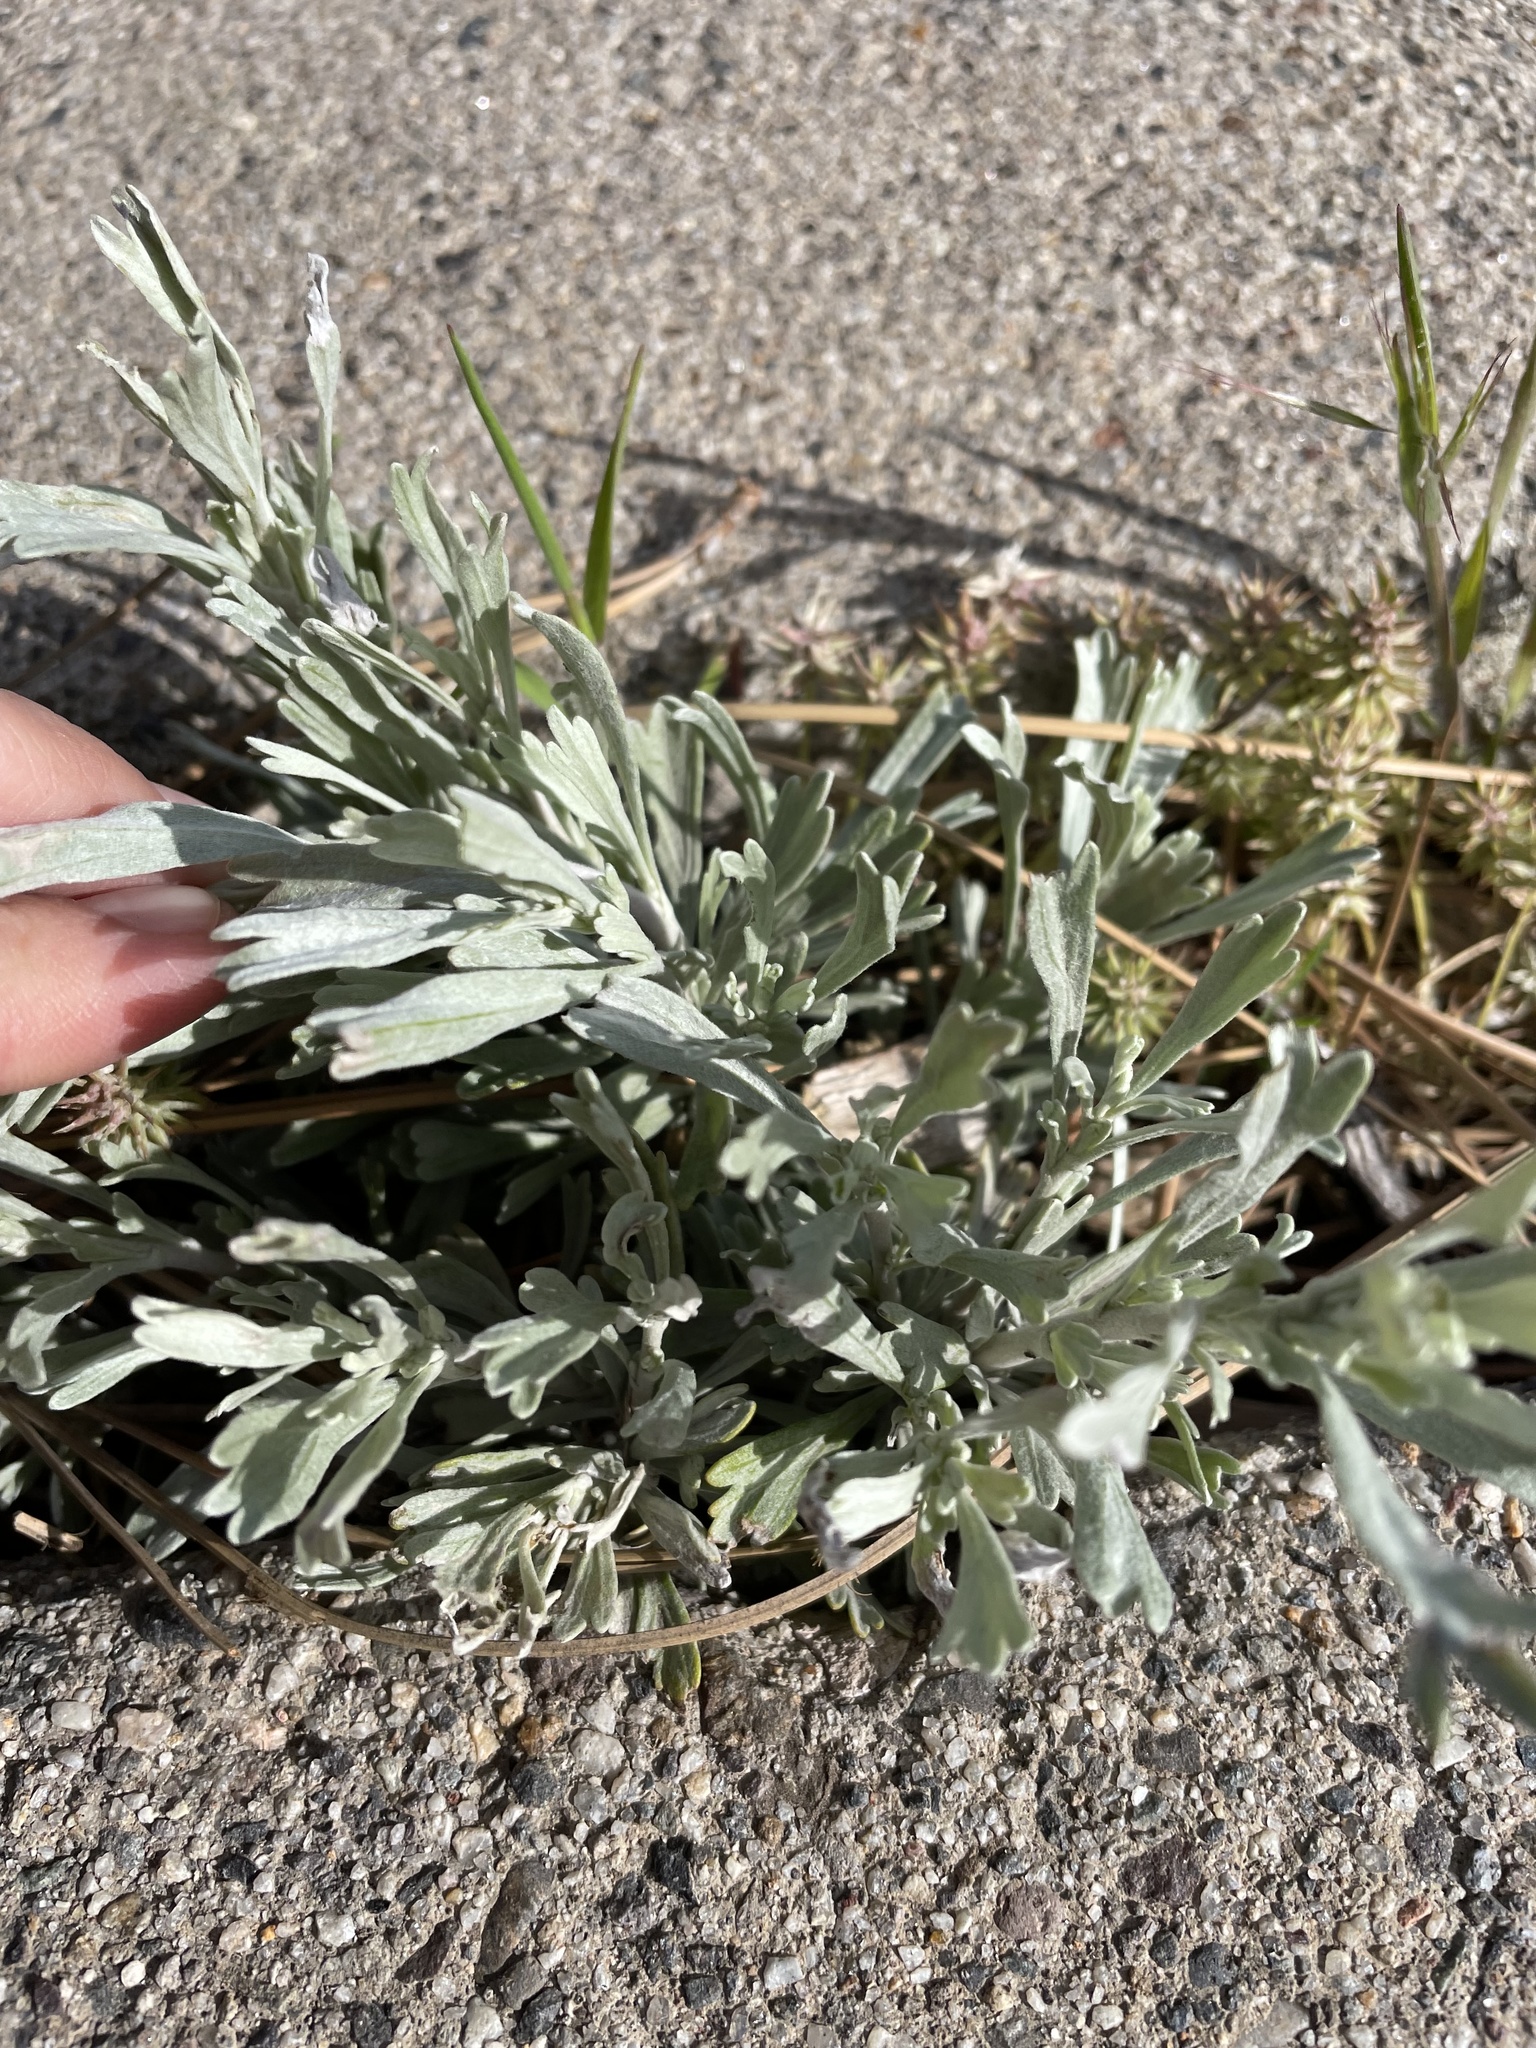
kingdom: Plantae
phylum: Tracheophyta
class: Magnoliopsida
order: Asterales
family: Asteraceae
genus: Artemisia
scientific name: Artemisia tridentata
